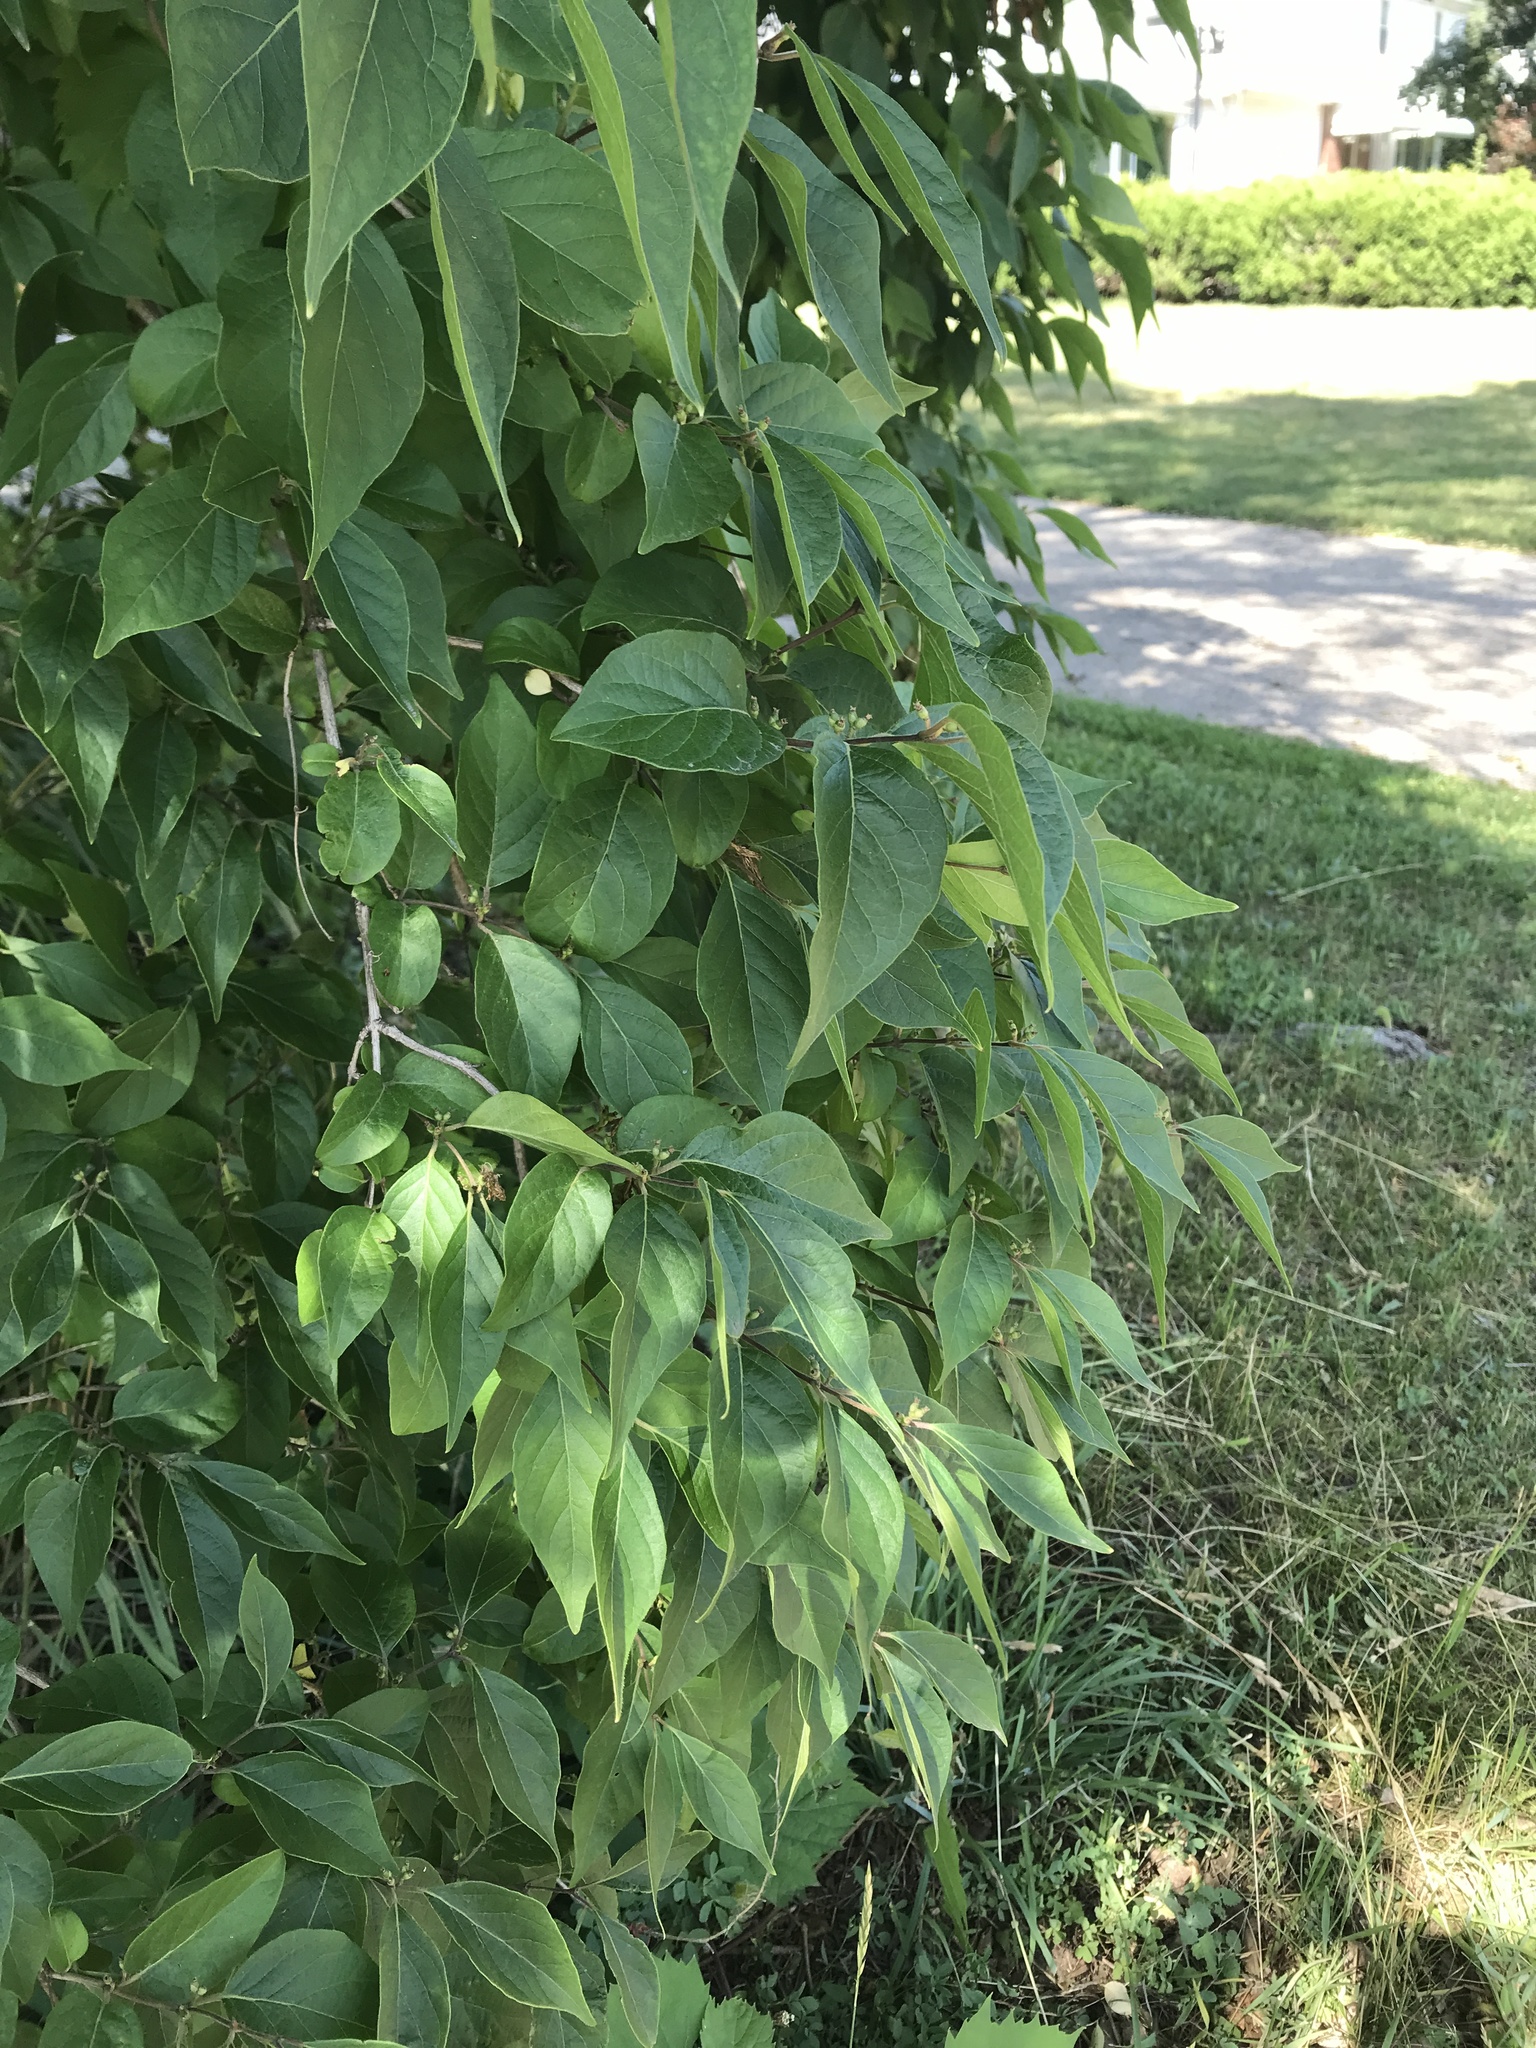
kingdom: Plantae
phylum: Tracheophyta
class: Magnoliopsida
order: Dipsacales
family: Caprifoliaceae
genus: Lonicera
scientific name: Lonicera maackii
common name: Amur honeysuckle
